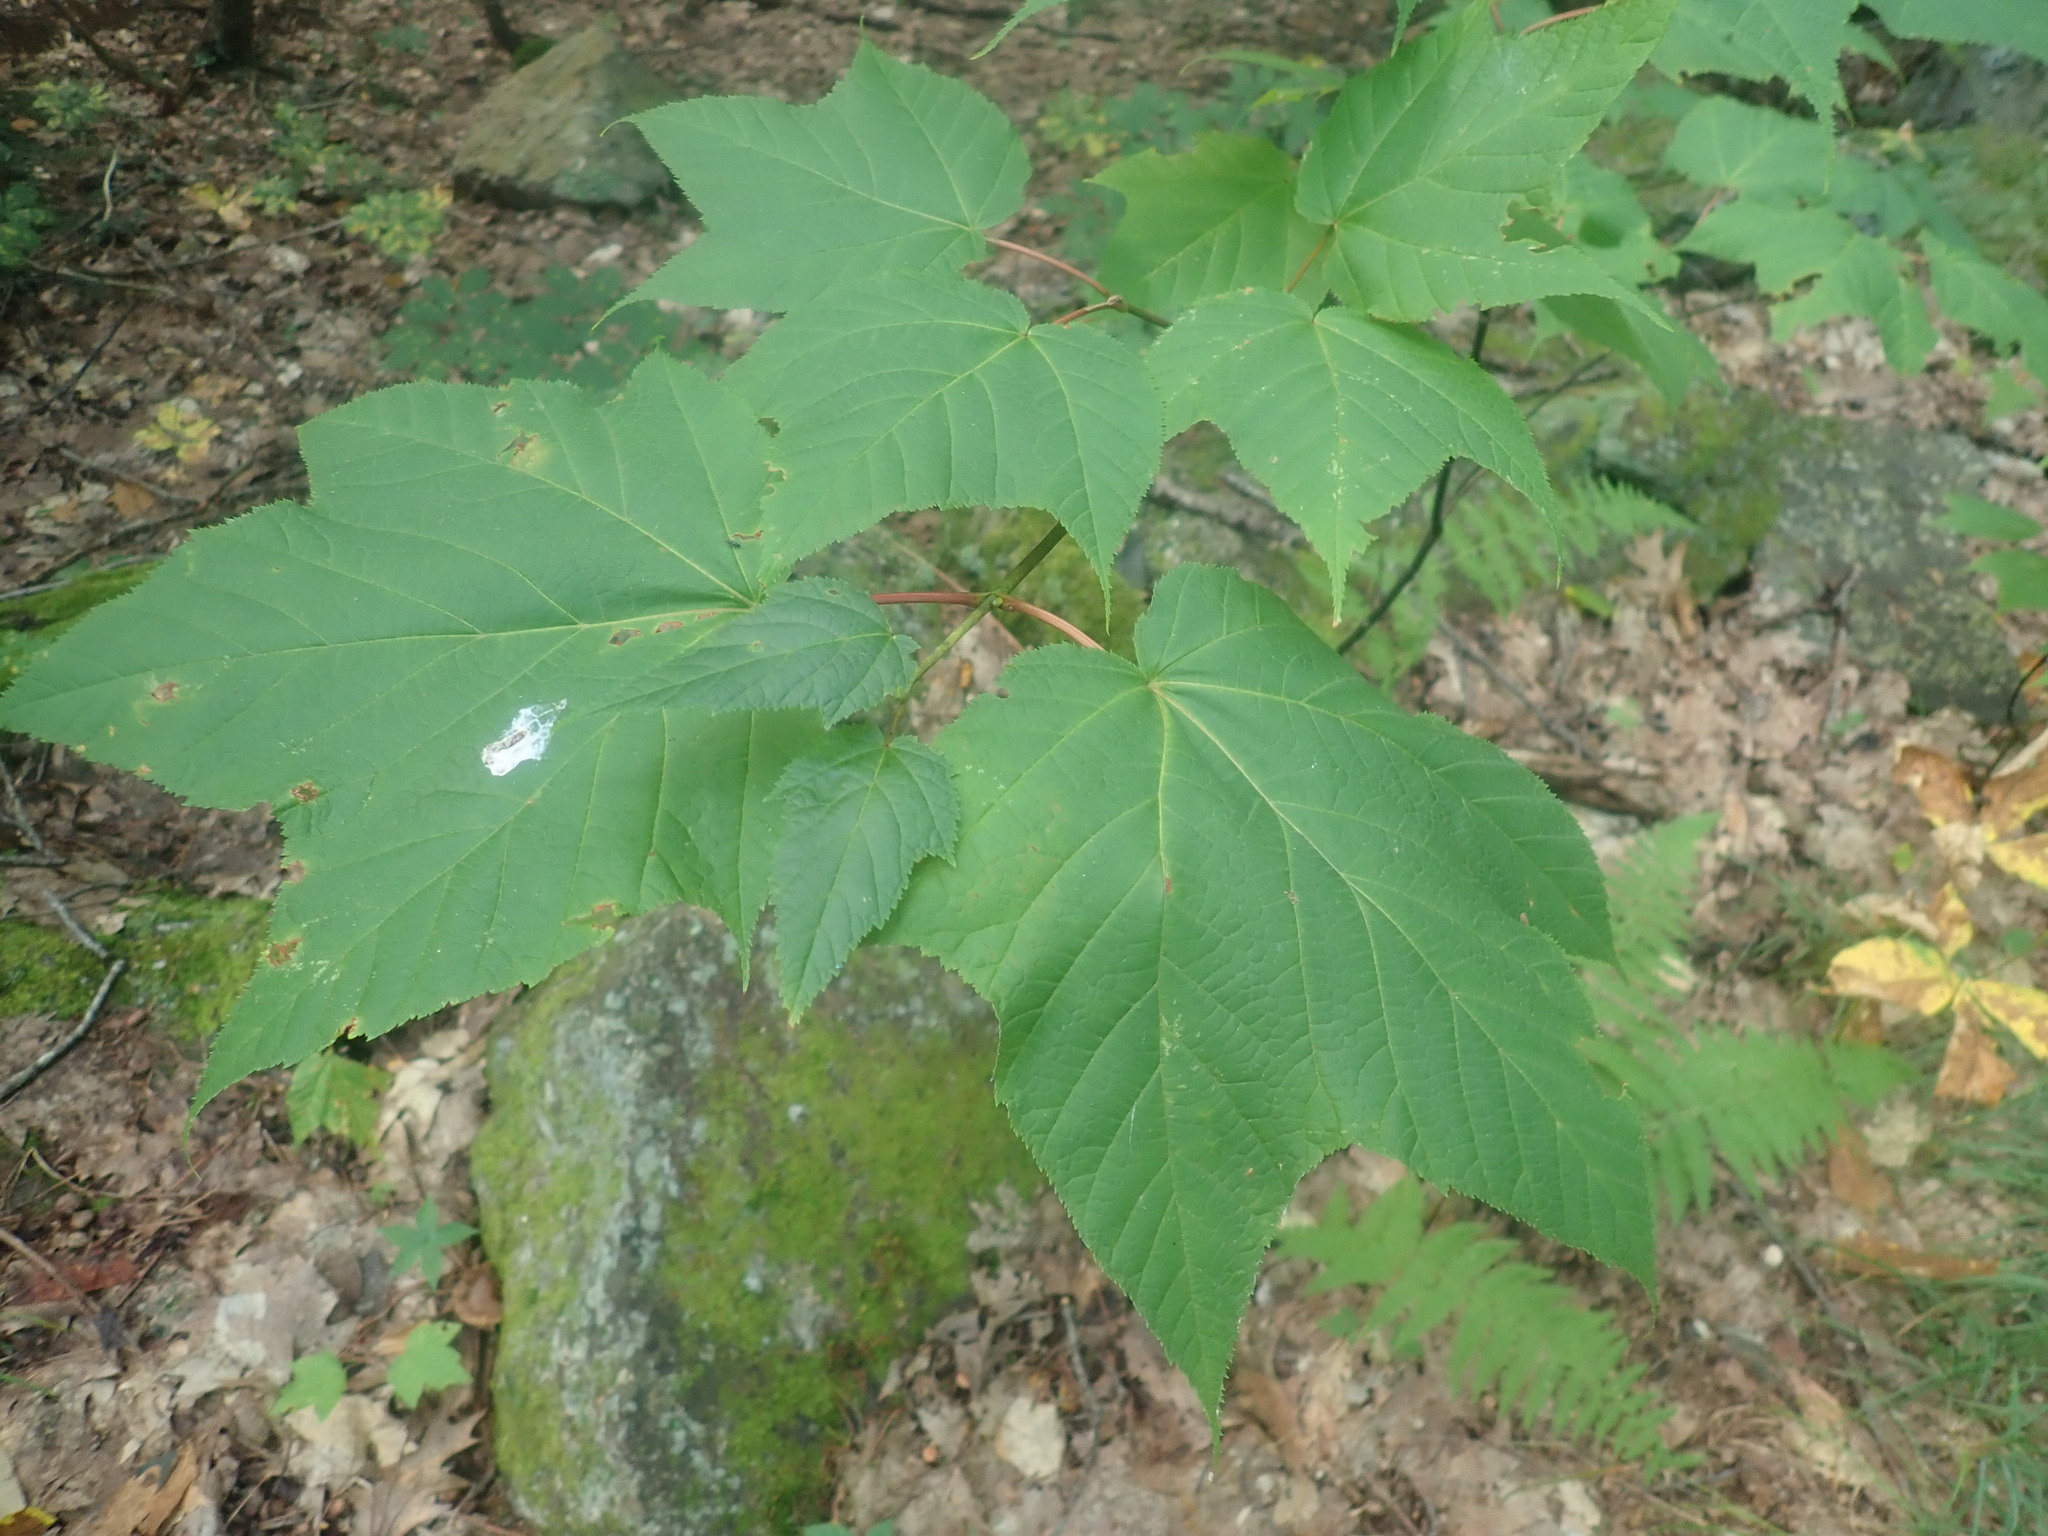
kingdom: Plantae
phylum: Tracheophyta
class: Magnoliopsida
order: Sapindales
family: Sapindaceae
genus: Acer
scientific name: Acer pensylvanicum
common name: Moosewood
